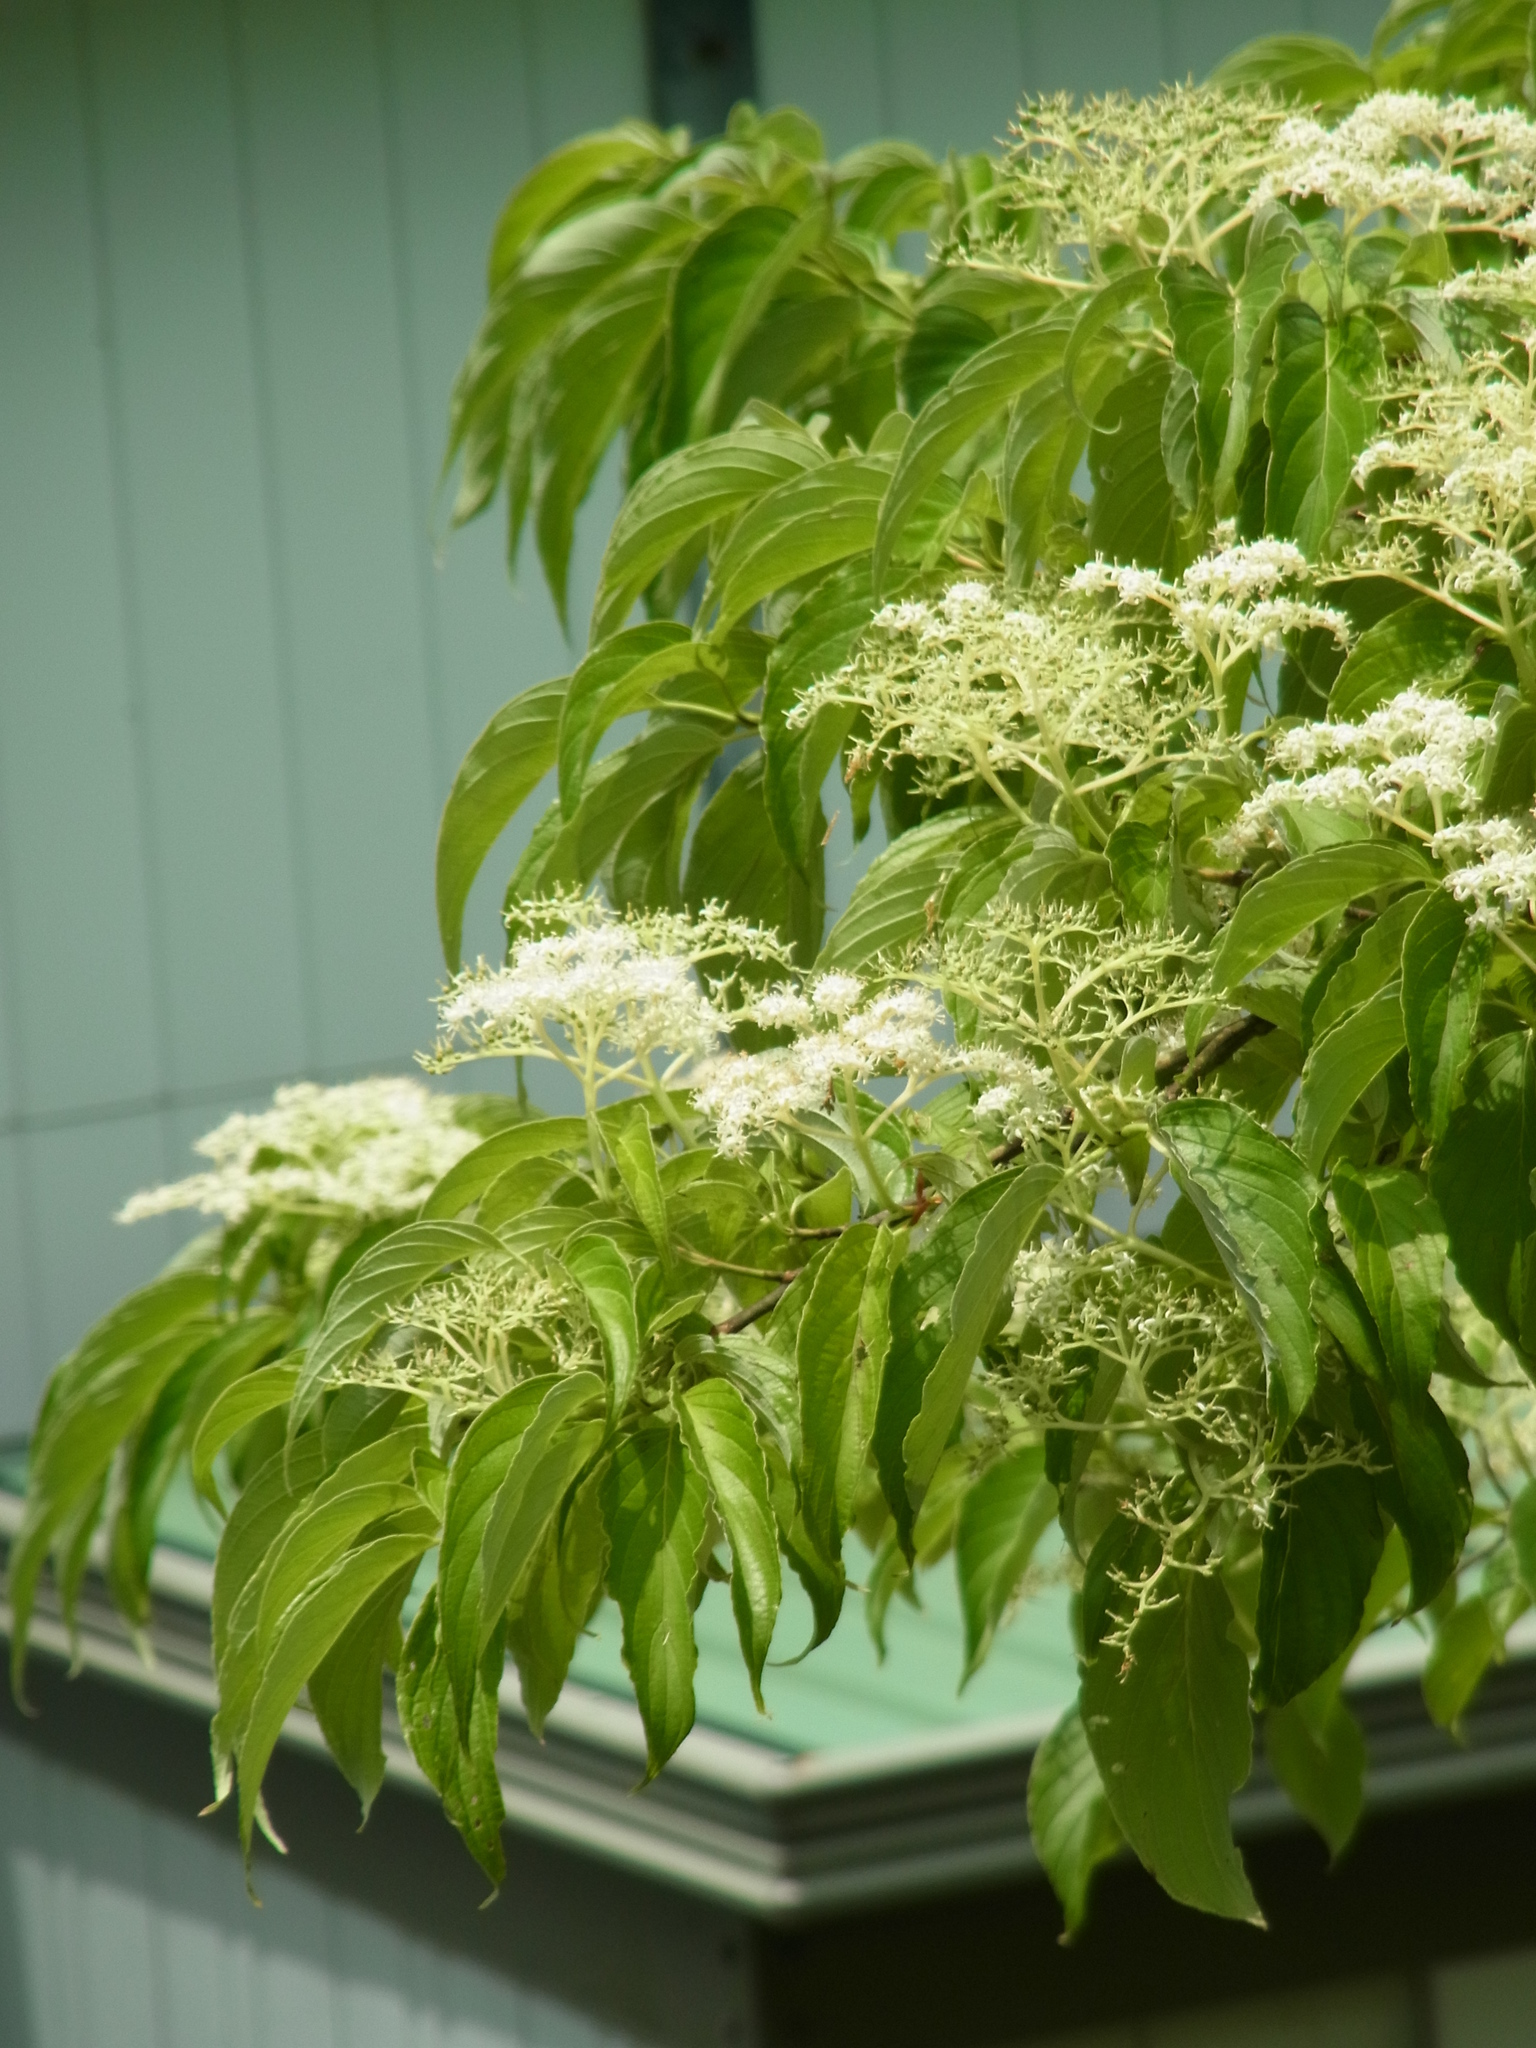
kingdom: Plantae
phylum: Tracheophyta
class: Magnoliopsida
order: Cornales
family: Cornaceae
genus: Cornus
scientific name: Cornus macrophylla
